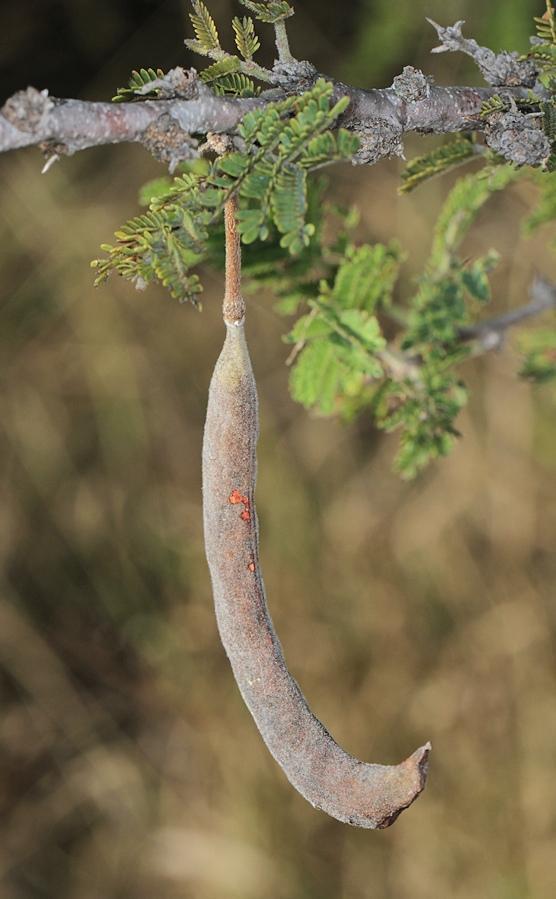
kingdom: Plantae
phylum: Tracheophyta
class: Magnoliopsida
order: Fabales
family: Fabaceae
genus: Vachellia
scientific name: Vachellia gerrardii
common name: Redthorn
